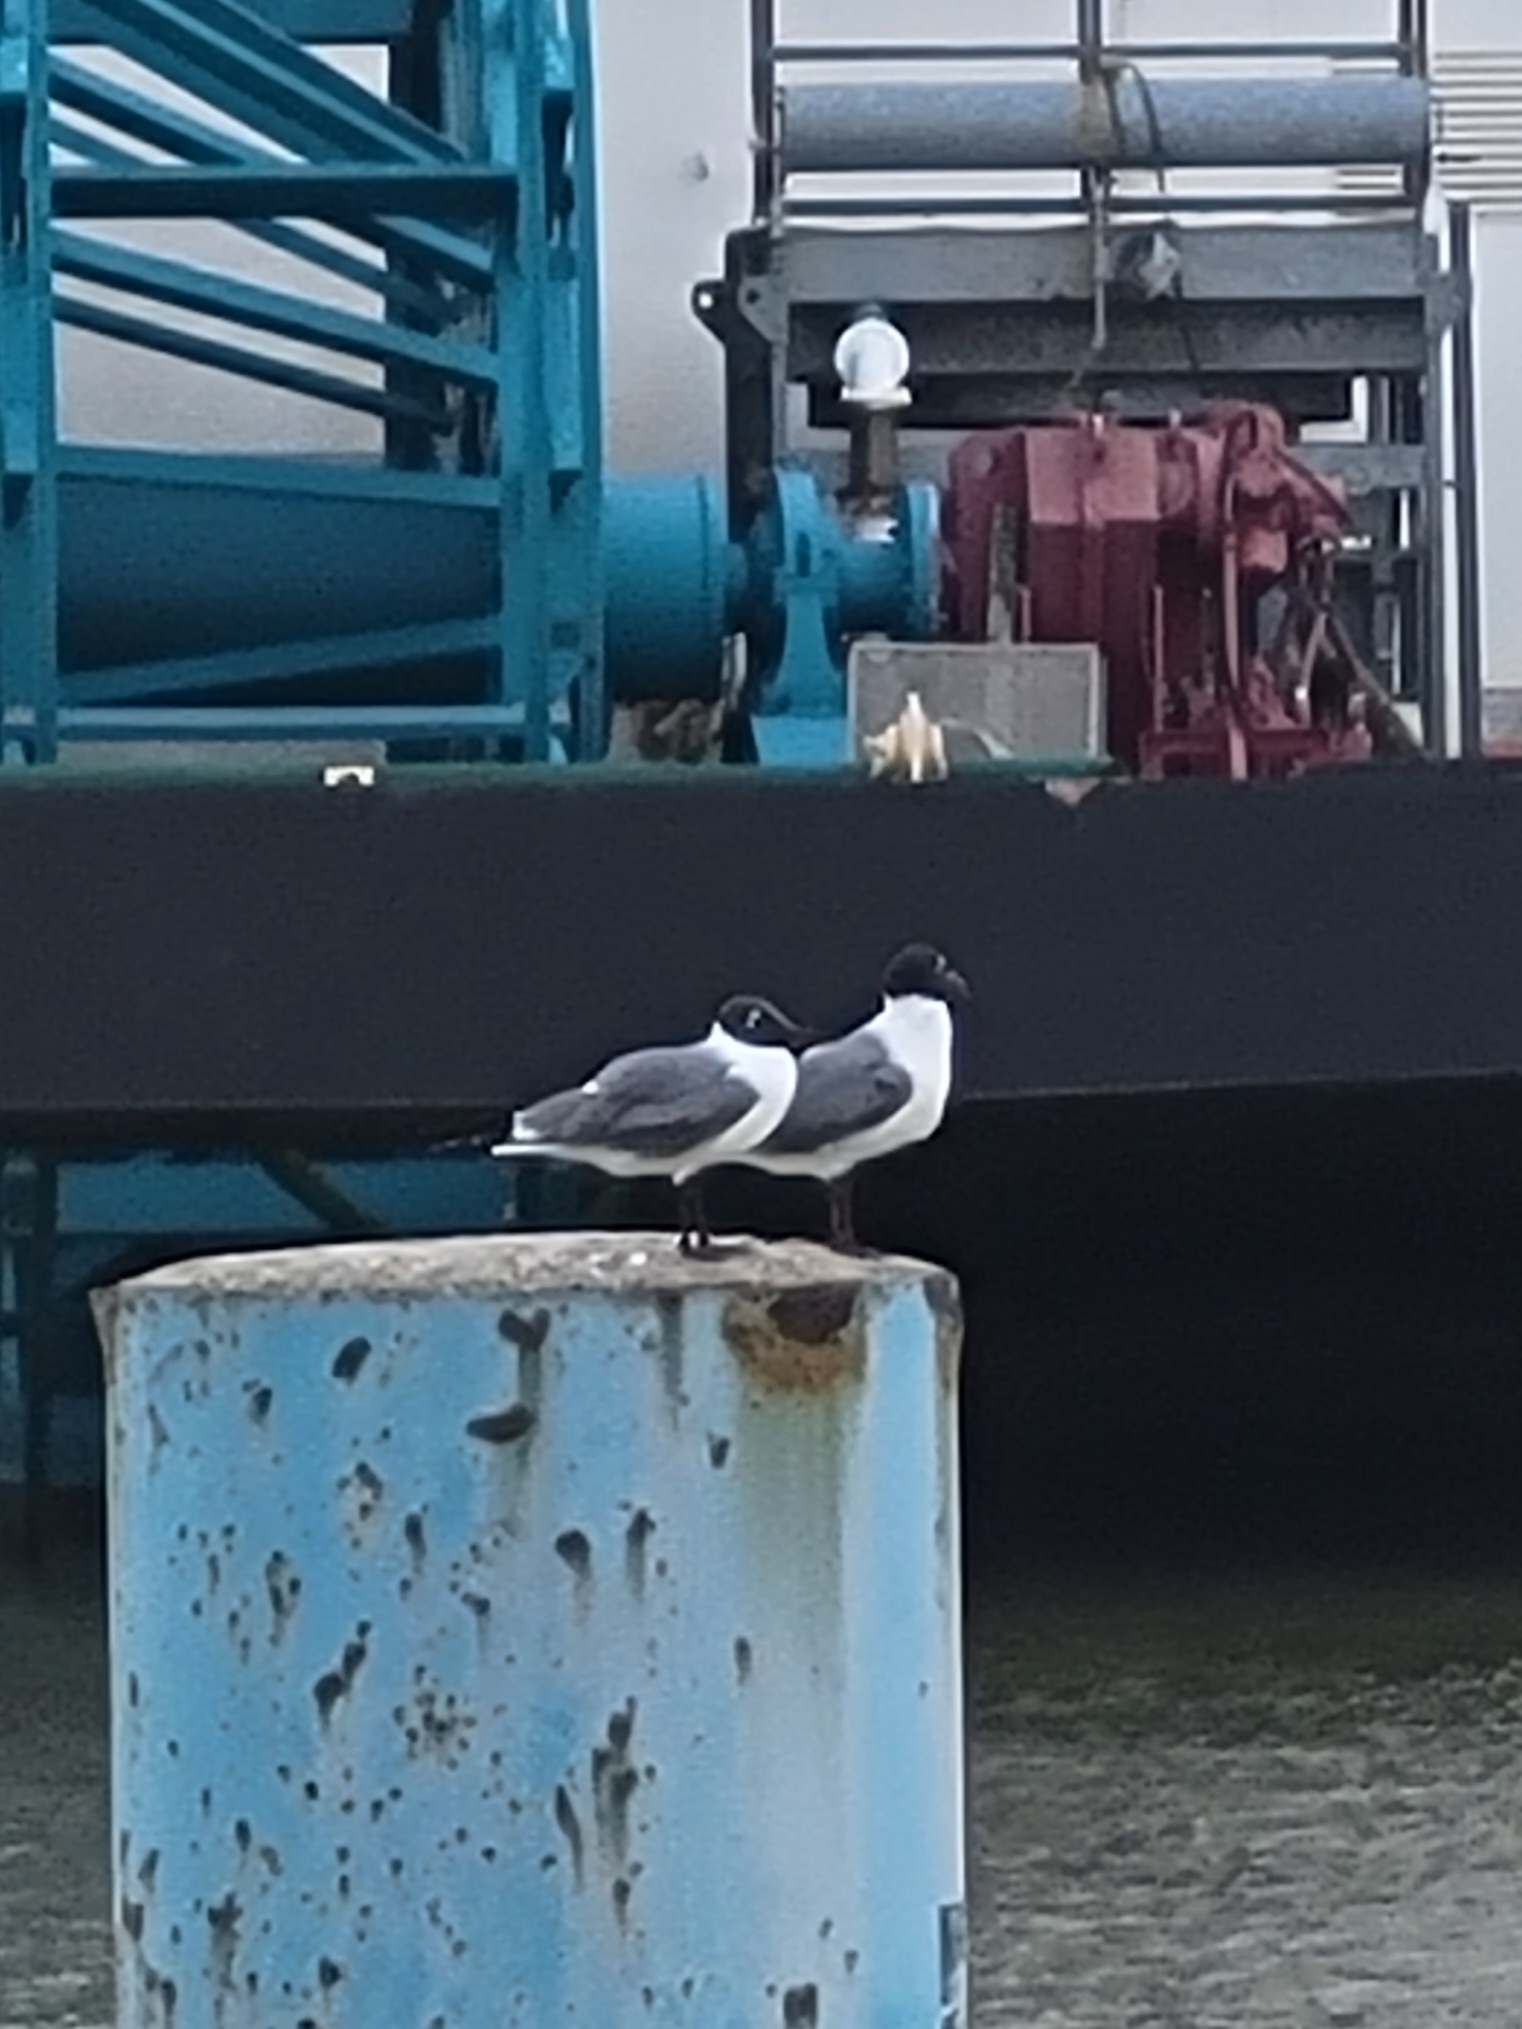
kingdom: Animalia
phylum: Chordata
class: Aves
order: Charadriiformes
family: Laridae
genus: Leucophaeus
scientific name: Leucophaeus atricilla
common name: Laughing gull
